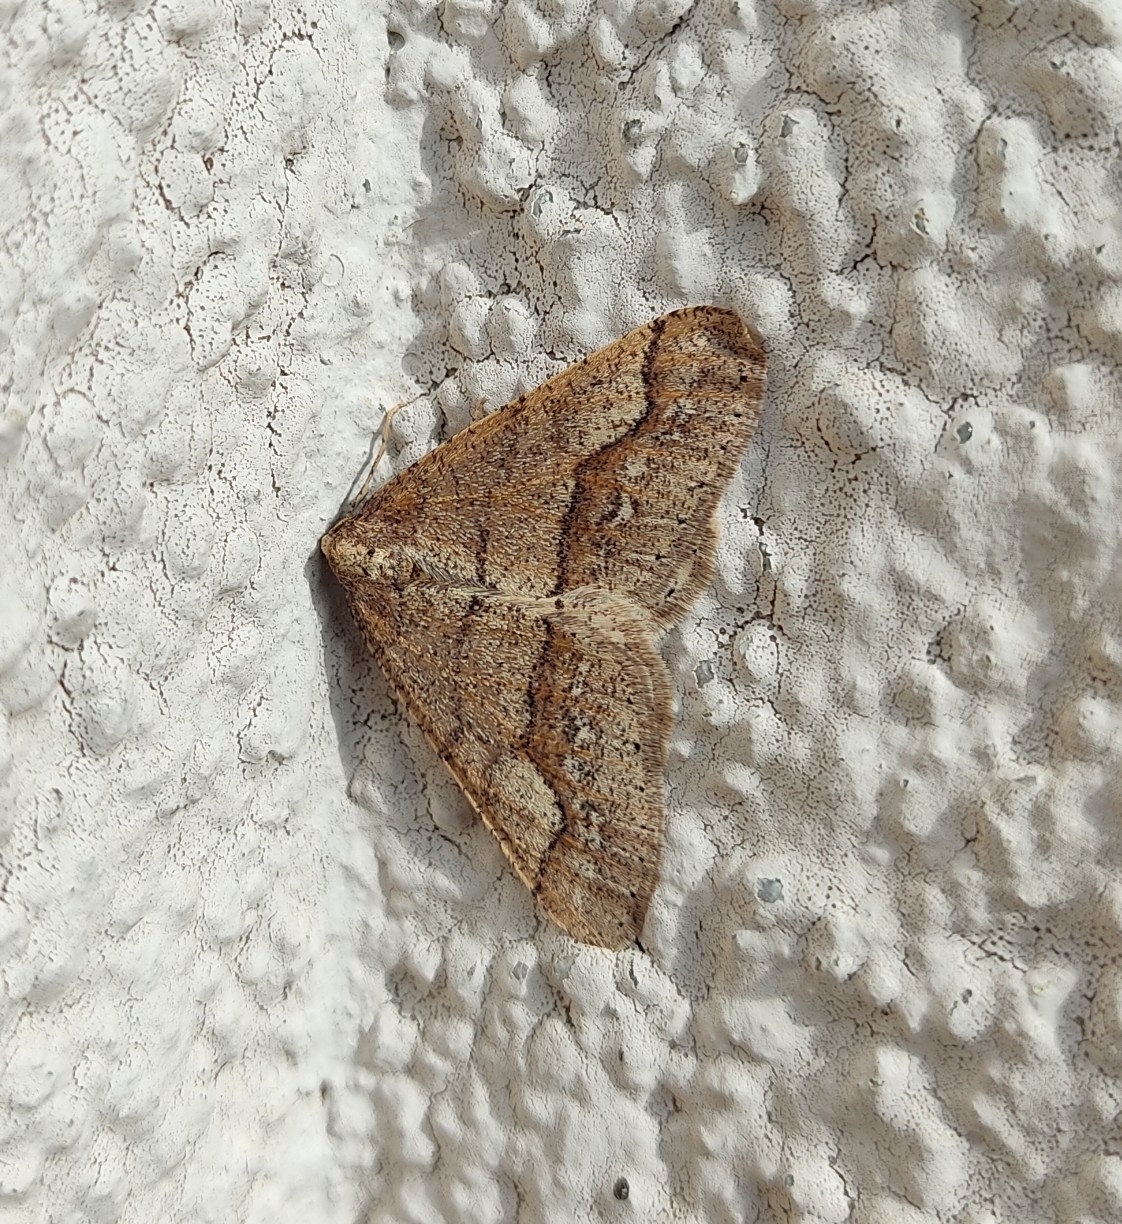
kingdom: Animalia
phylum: Arthropoda
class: Insecta
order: Lepidoptera
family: Geometridae
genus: Agriopis
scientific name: Agriopis marginaria
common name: Dotted border
